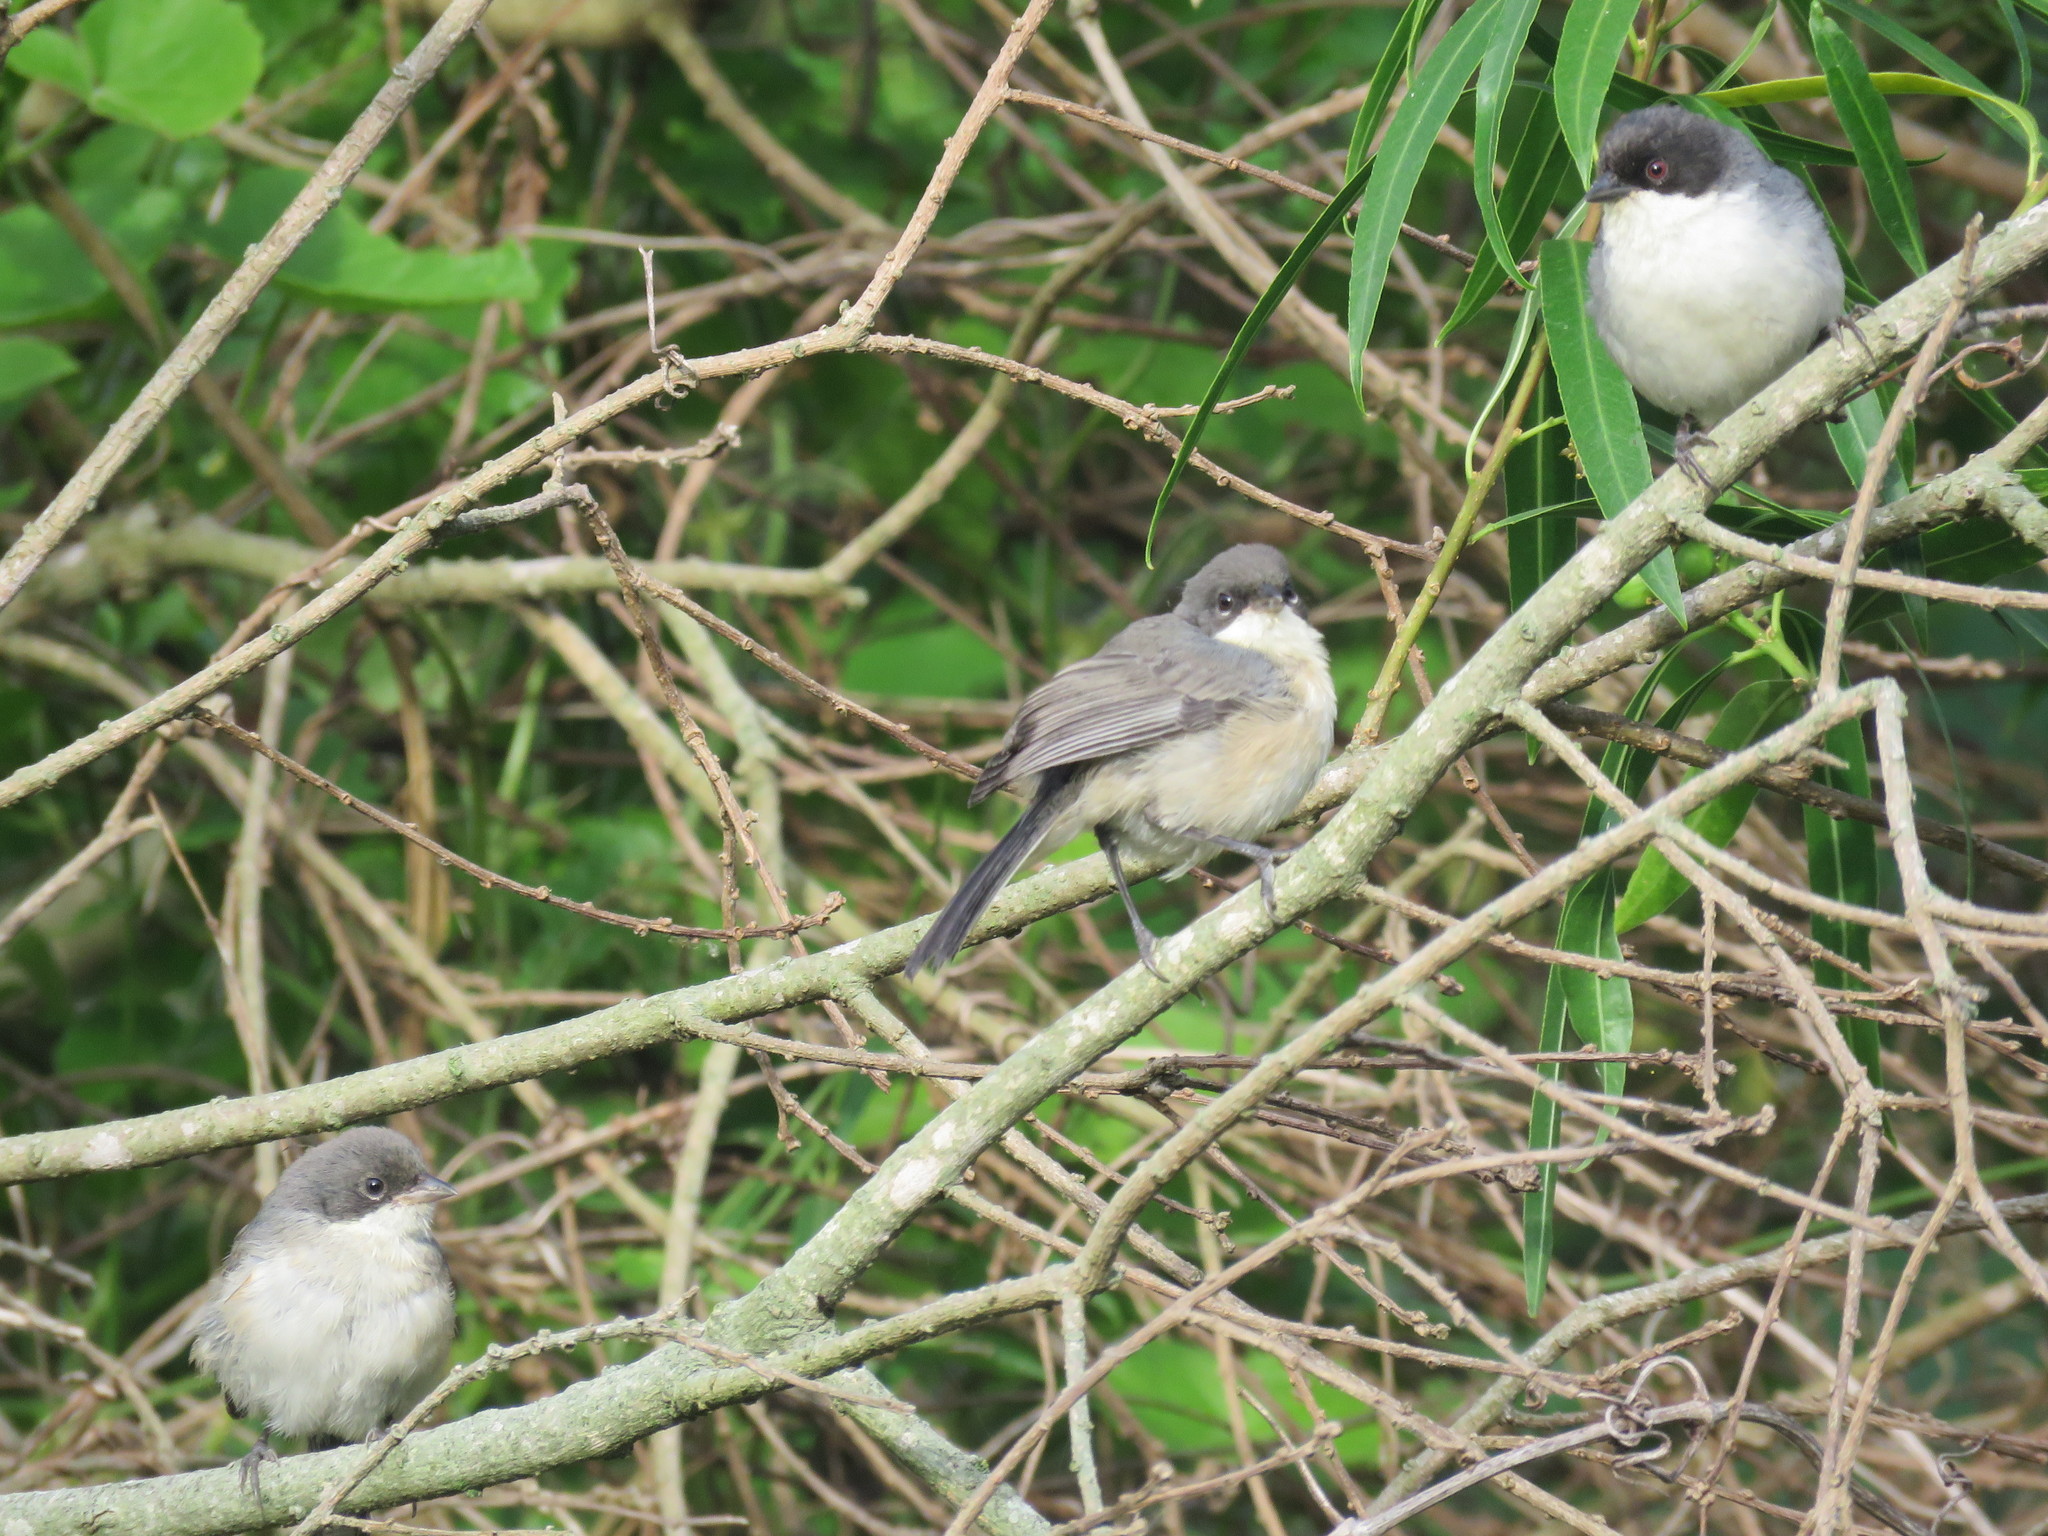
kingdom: Animalia
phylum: Chordata
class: Aves
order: Passeriformes
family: Thraupidae
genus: Microspingus
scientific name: Microspingus melanoleucus
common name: Black-capped warbling-finch
